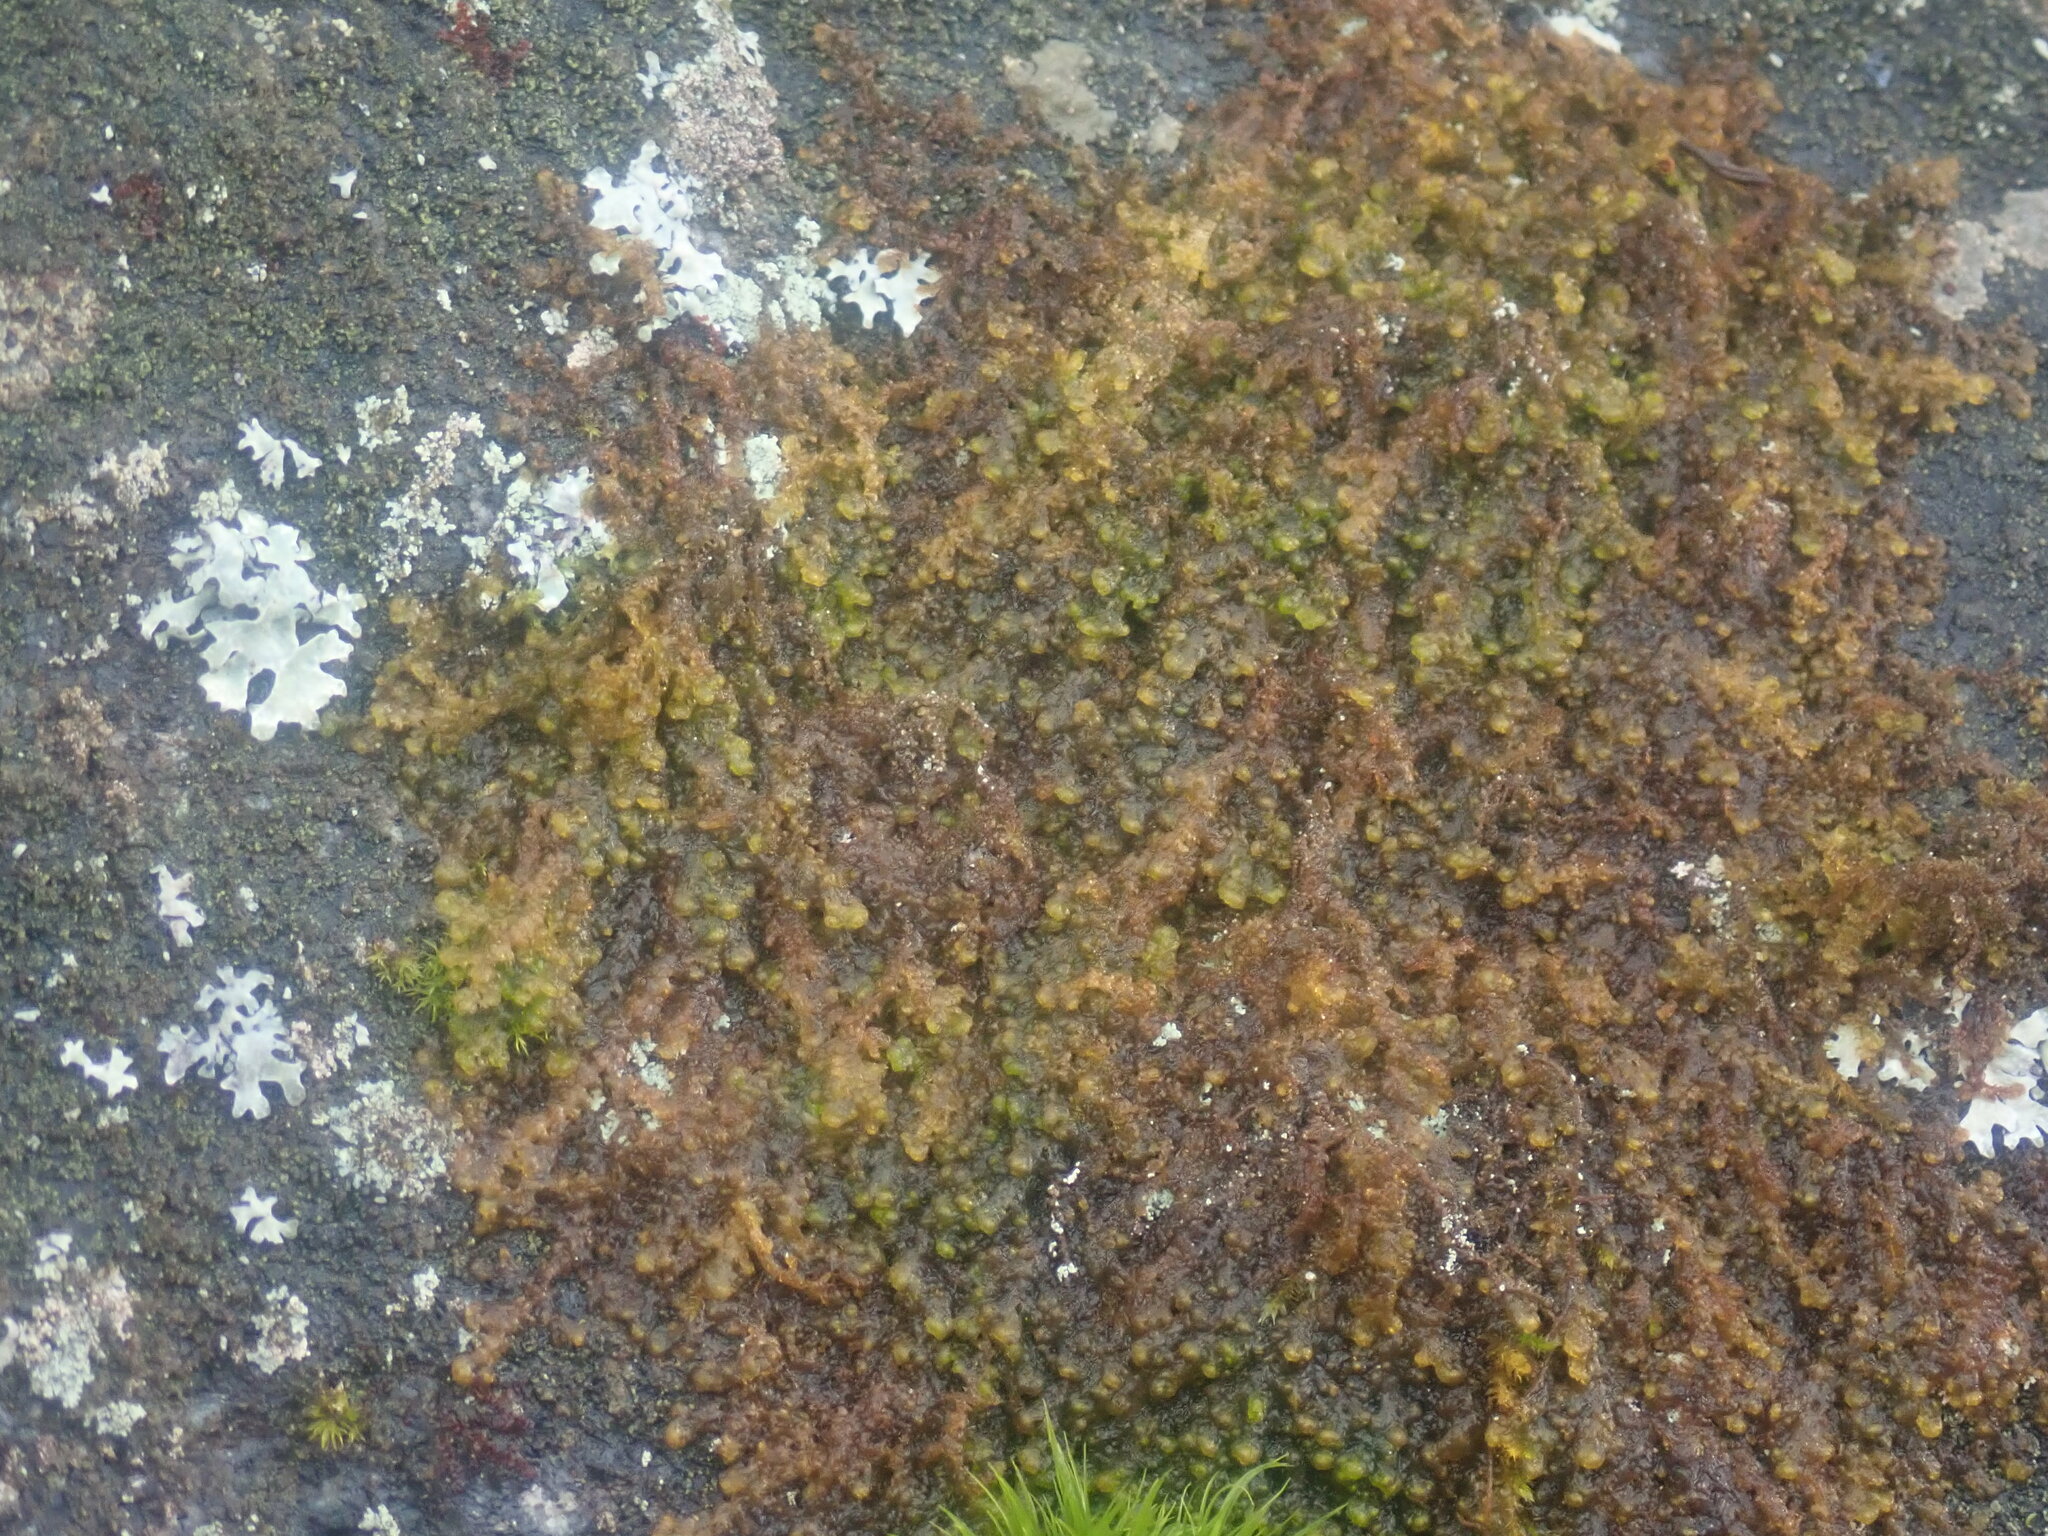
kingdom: Plantae
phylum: Marchantiophyta
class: Jungermanniopsida
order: Ptilidiales
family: Ptilidiaceae
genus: Ptilidium
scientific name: Ptilidium pulcherrimum
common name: Tree fringewort
